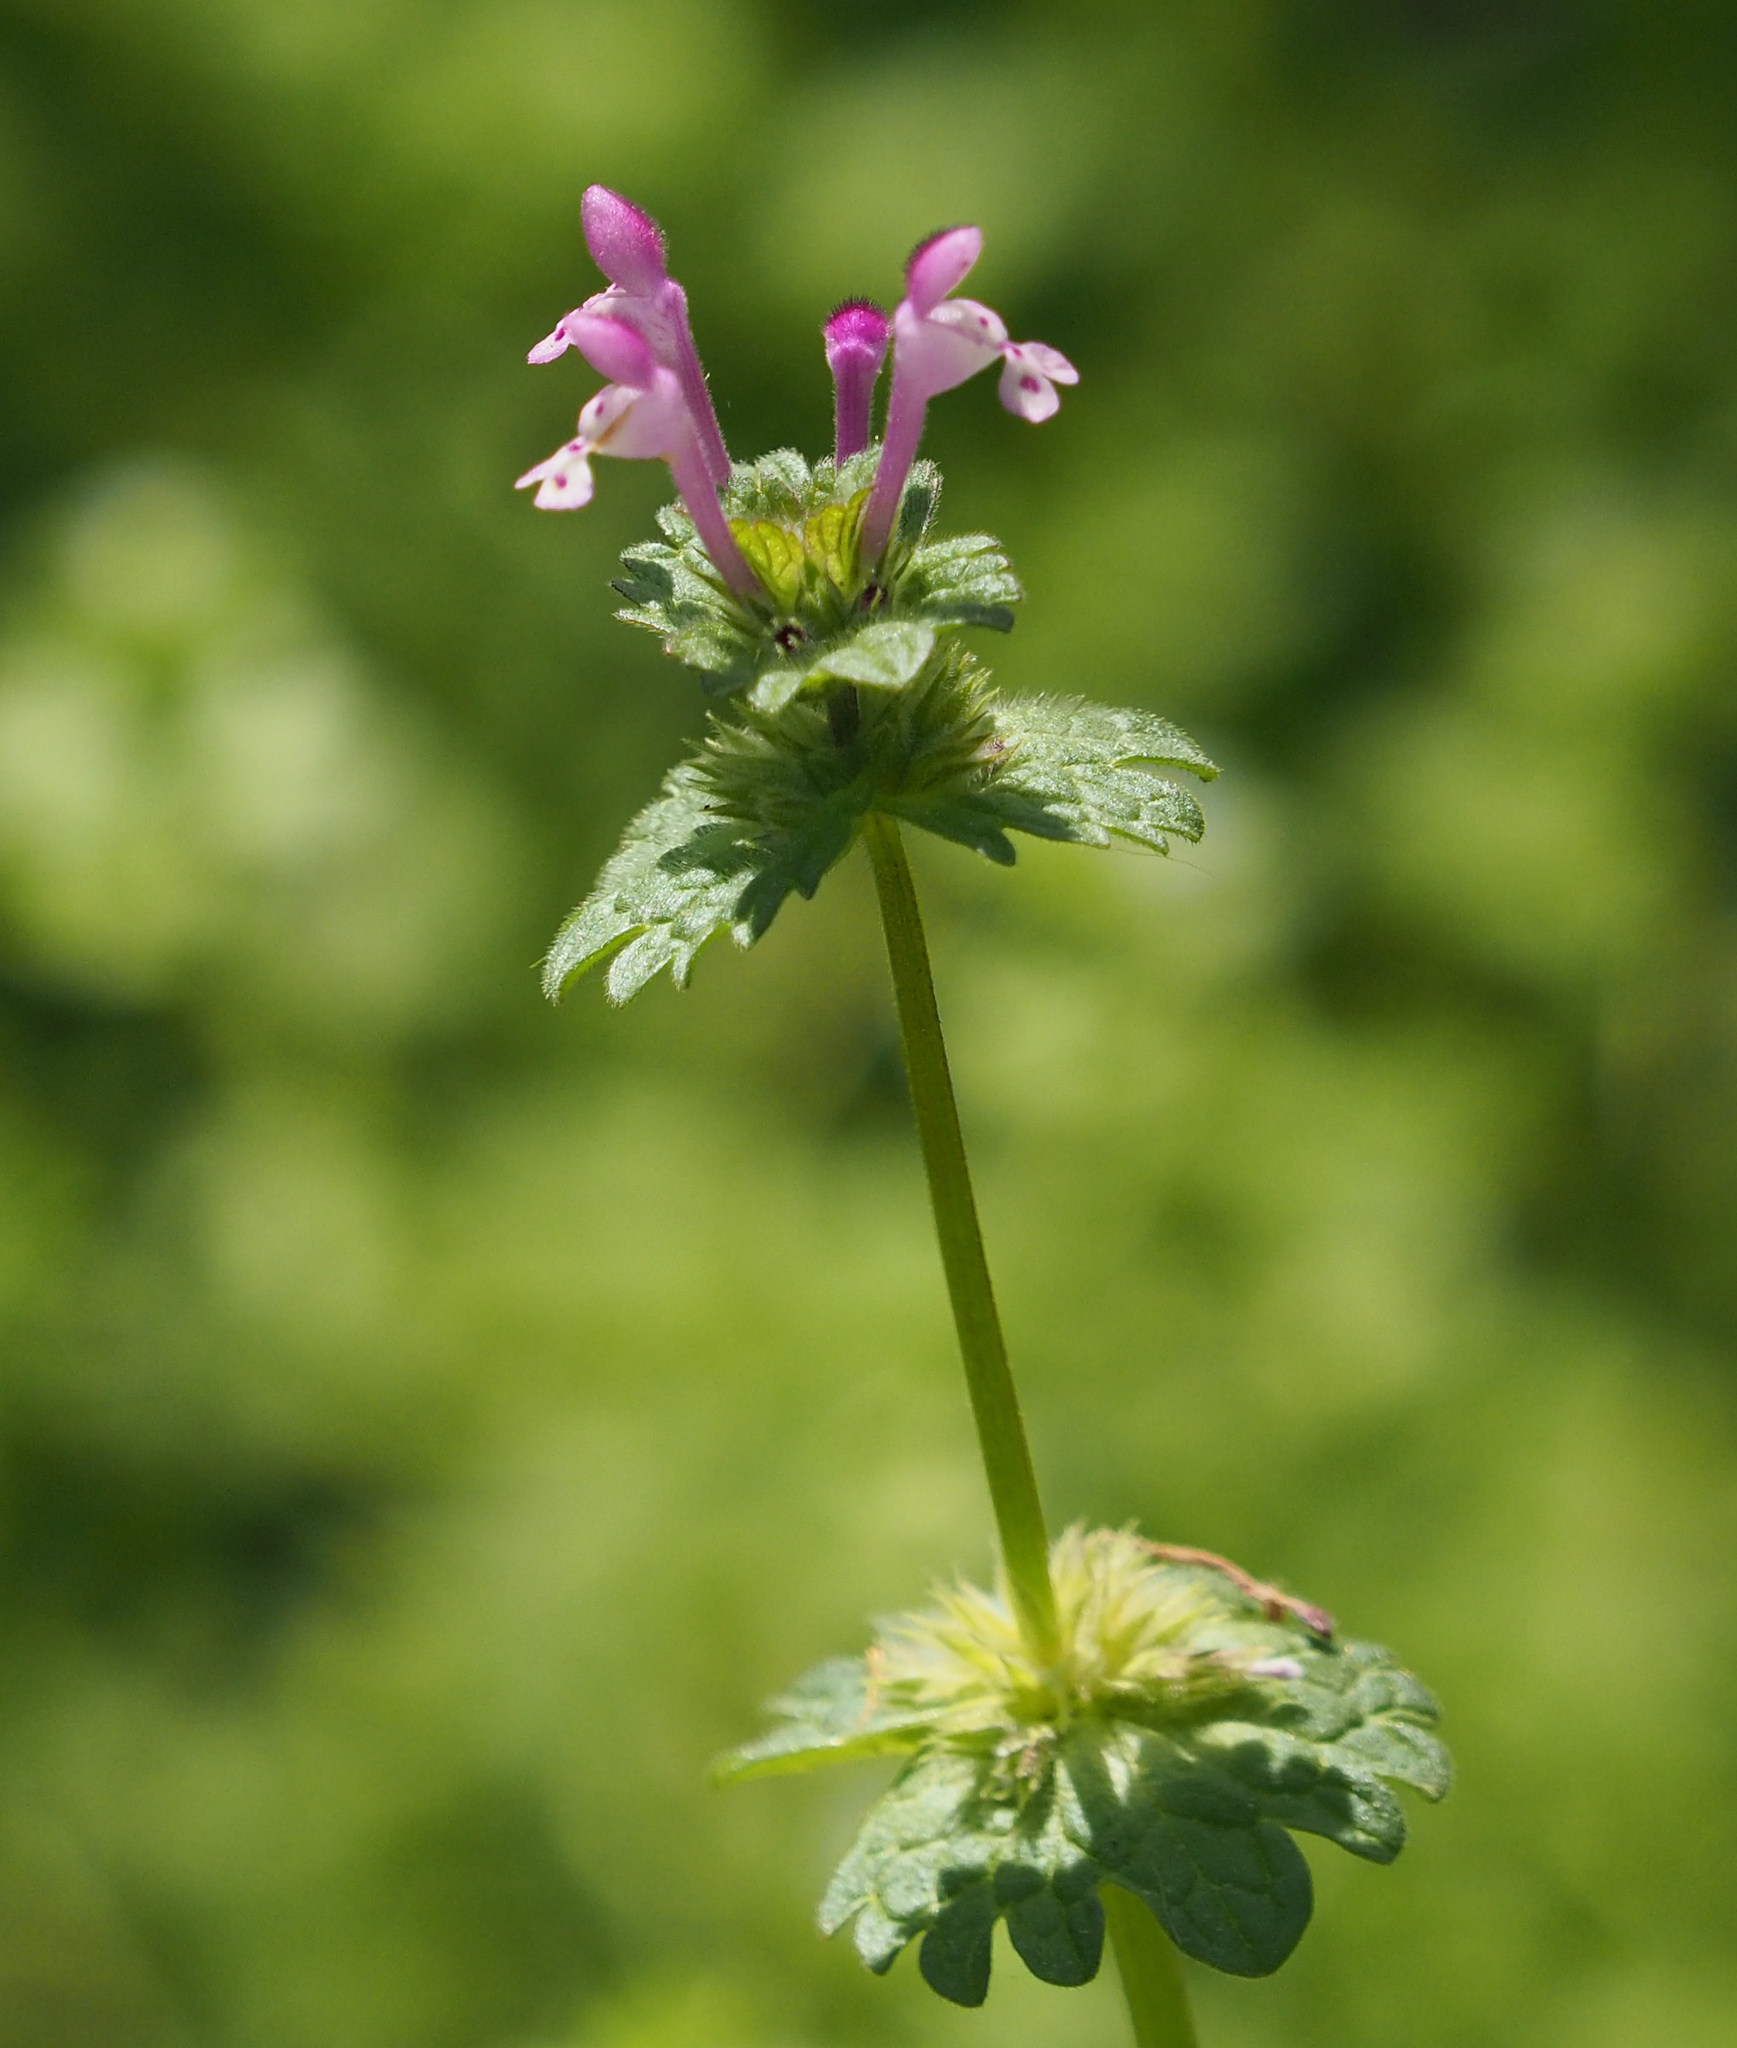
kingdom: Plantae
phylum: Tracheophyta
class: Magnoliopsida
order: Lamiales
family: Lamiaceae
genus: Lamium
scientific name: Lamium amplexicaule
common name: Henbit dead-nettle
